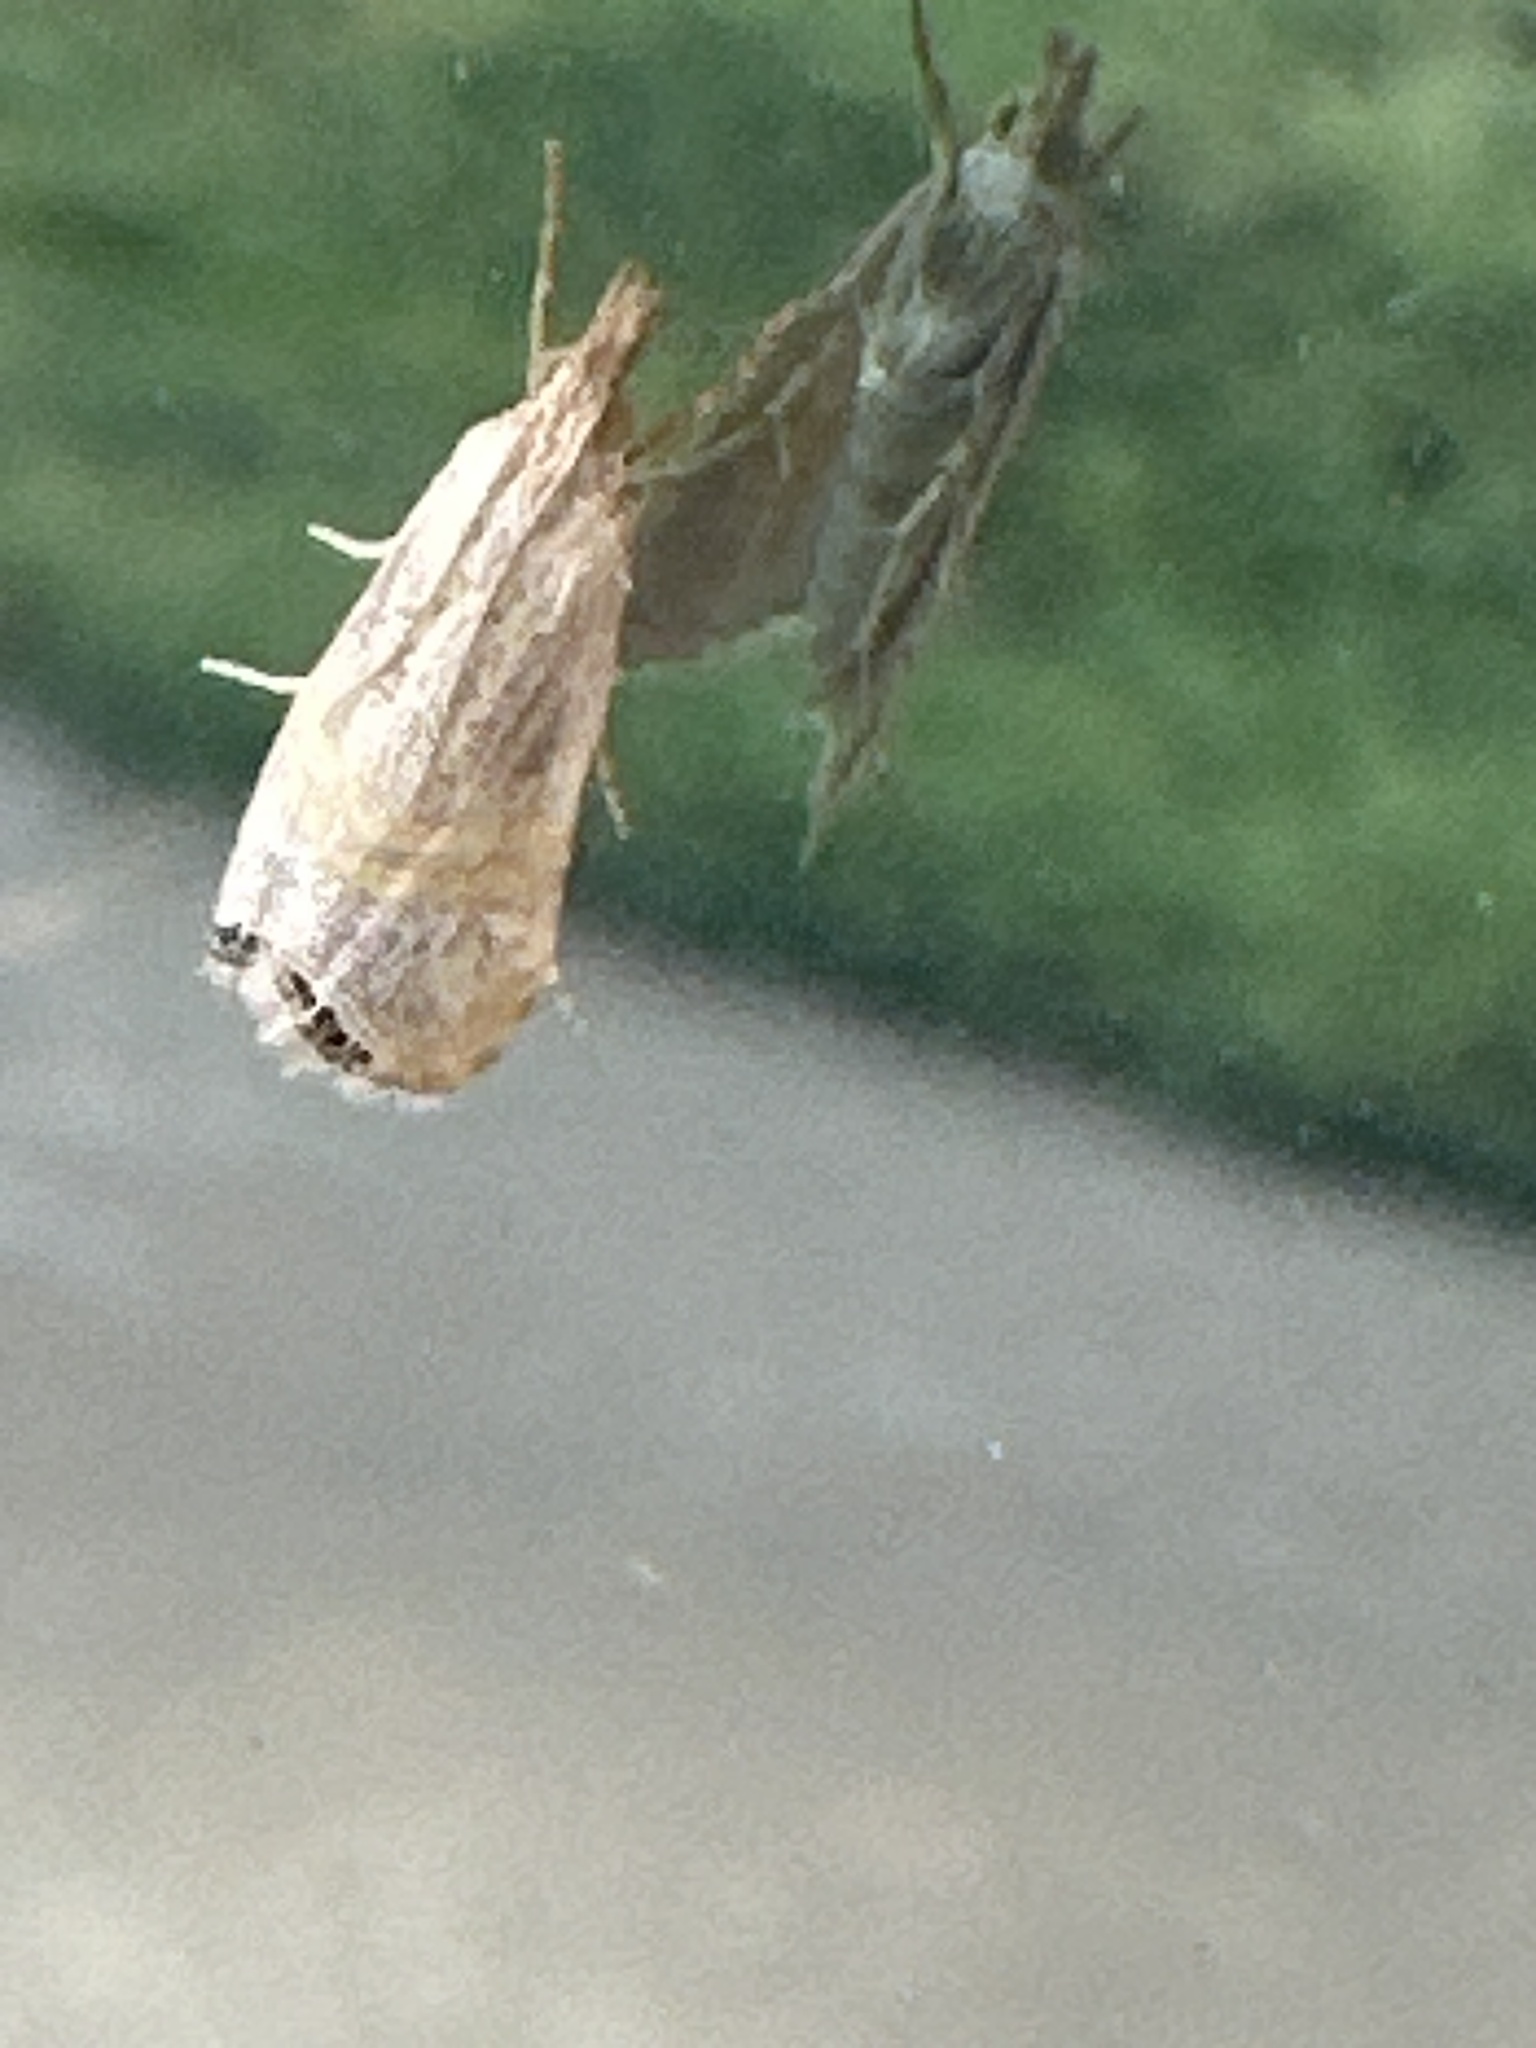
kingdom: Animalia
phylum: Arthropoda
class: Insecta
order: Lepidoptera
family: Crambidae
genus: Euchromius
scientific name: Euchromius ocellea
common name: Necklace veneer moth
